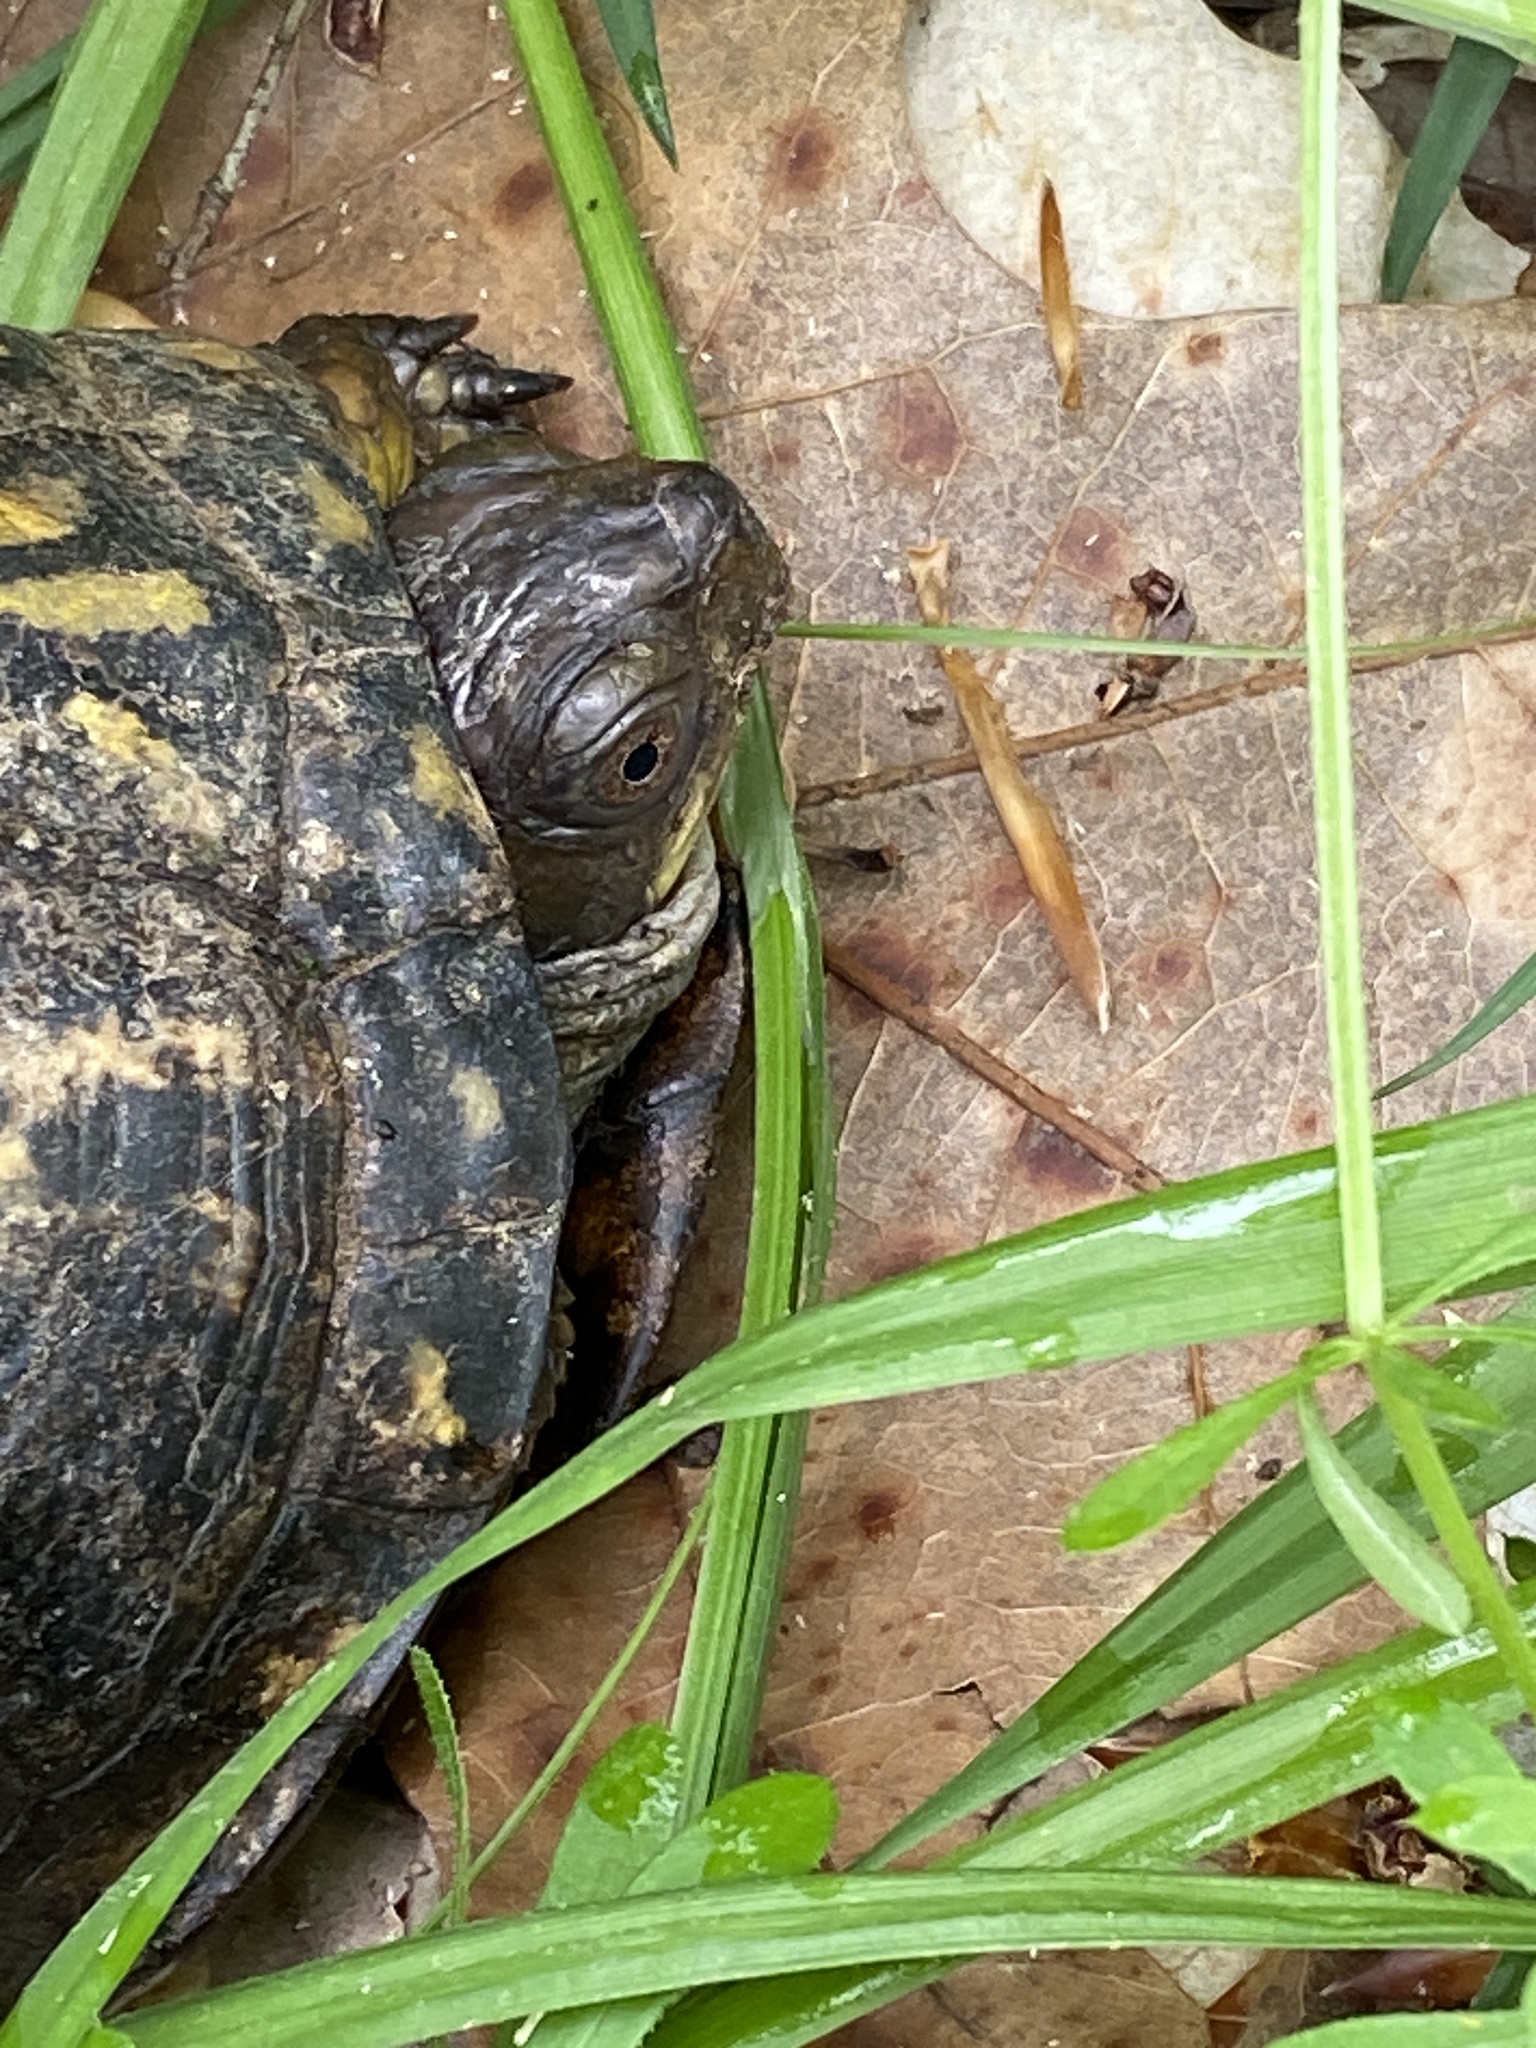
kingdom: Animalia
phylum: Chordata
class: Testudines
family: Emydidae
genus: Terrapene
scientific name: Terrapene carolina
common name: Common box turtle
